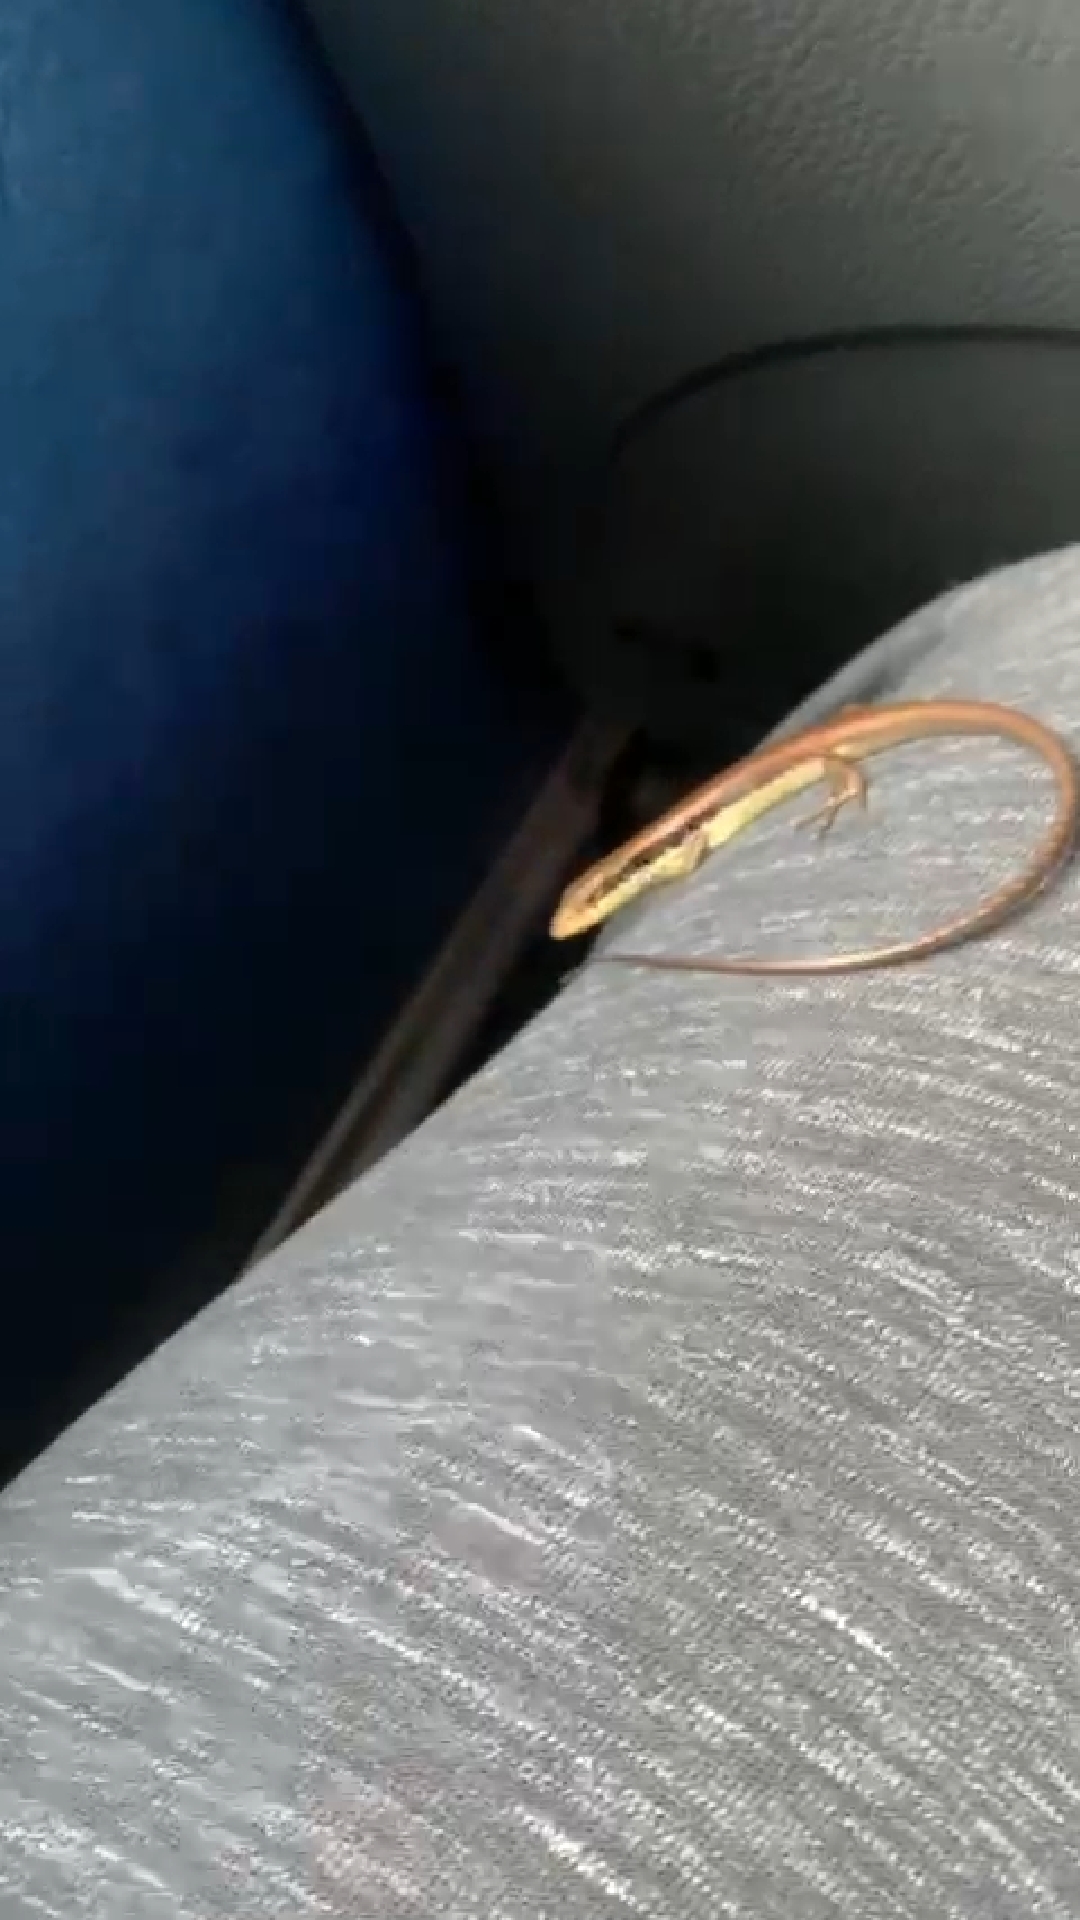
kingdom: Animalia
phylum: Chordata
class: Squamata
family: Scincidae
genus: Eutropis
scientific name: Eutropis longicaudata
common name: Long-tailed sun skink
